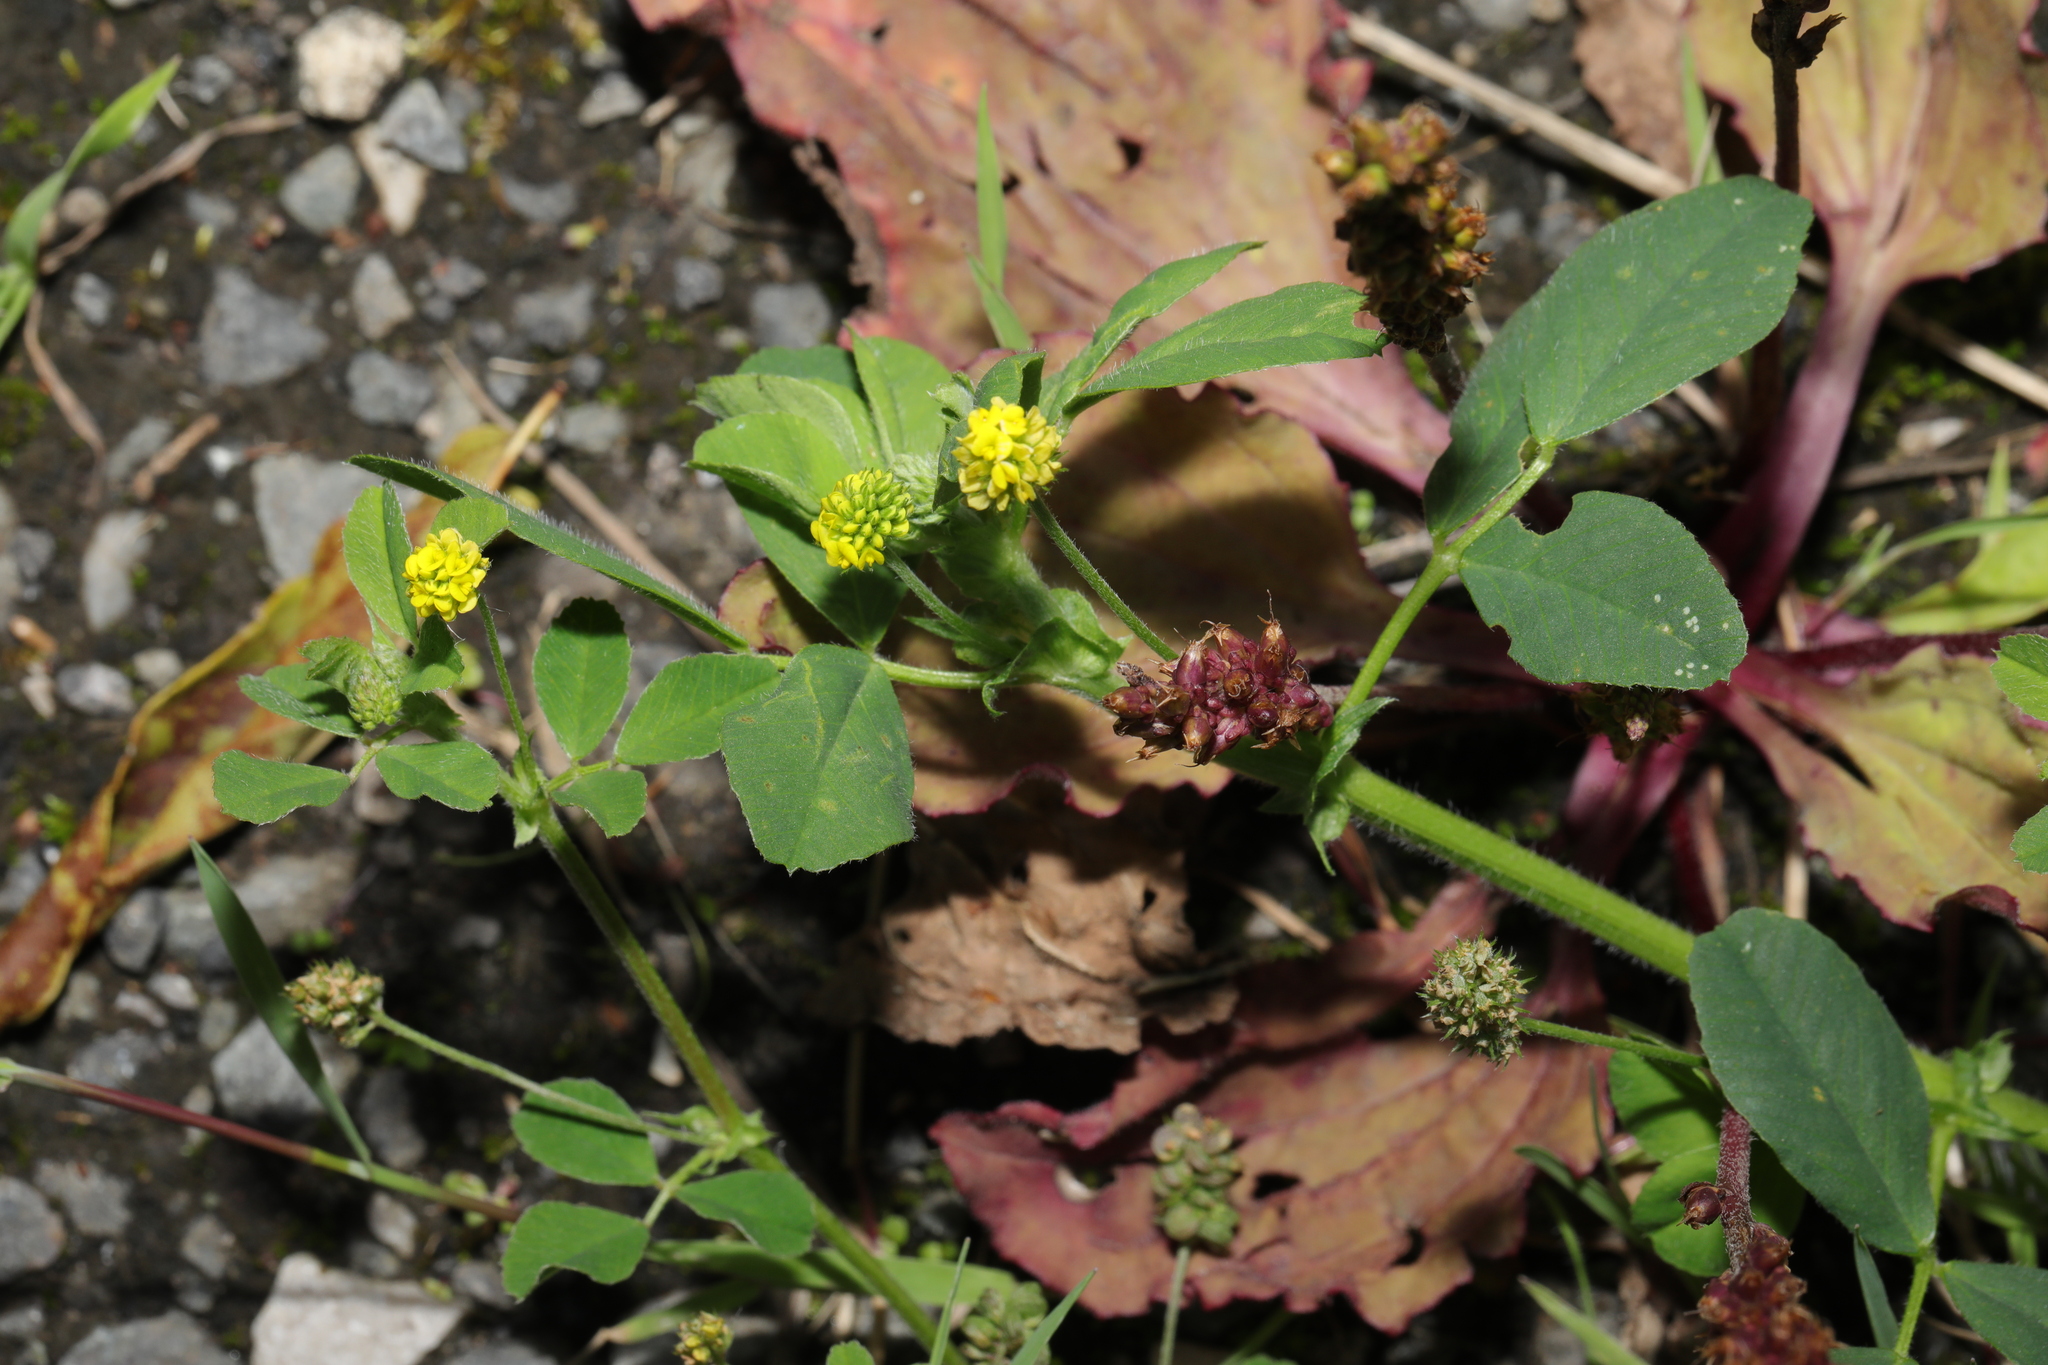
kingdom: Plantae
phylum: Tracheophyta
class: Magnoliopsida
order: Fabales
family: Fabaceae
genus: Medicago
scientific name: Medicago lupulina
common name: Black medick
